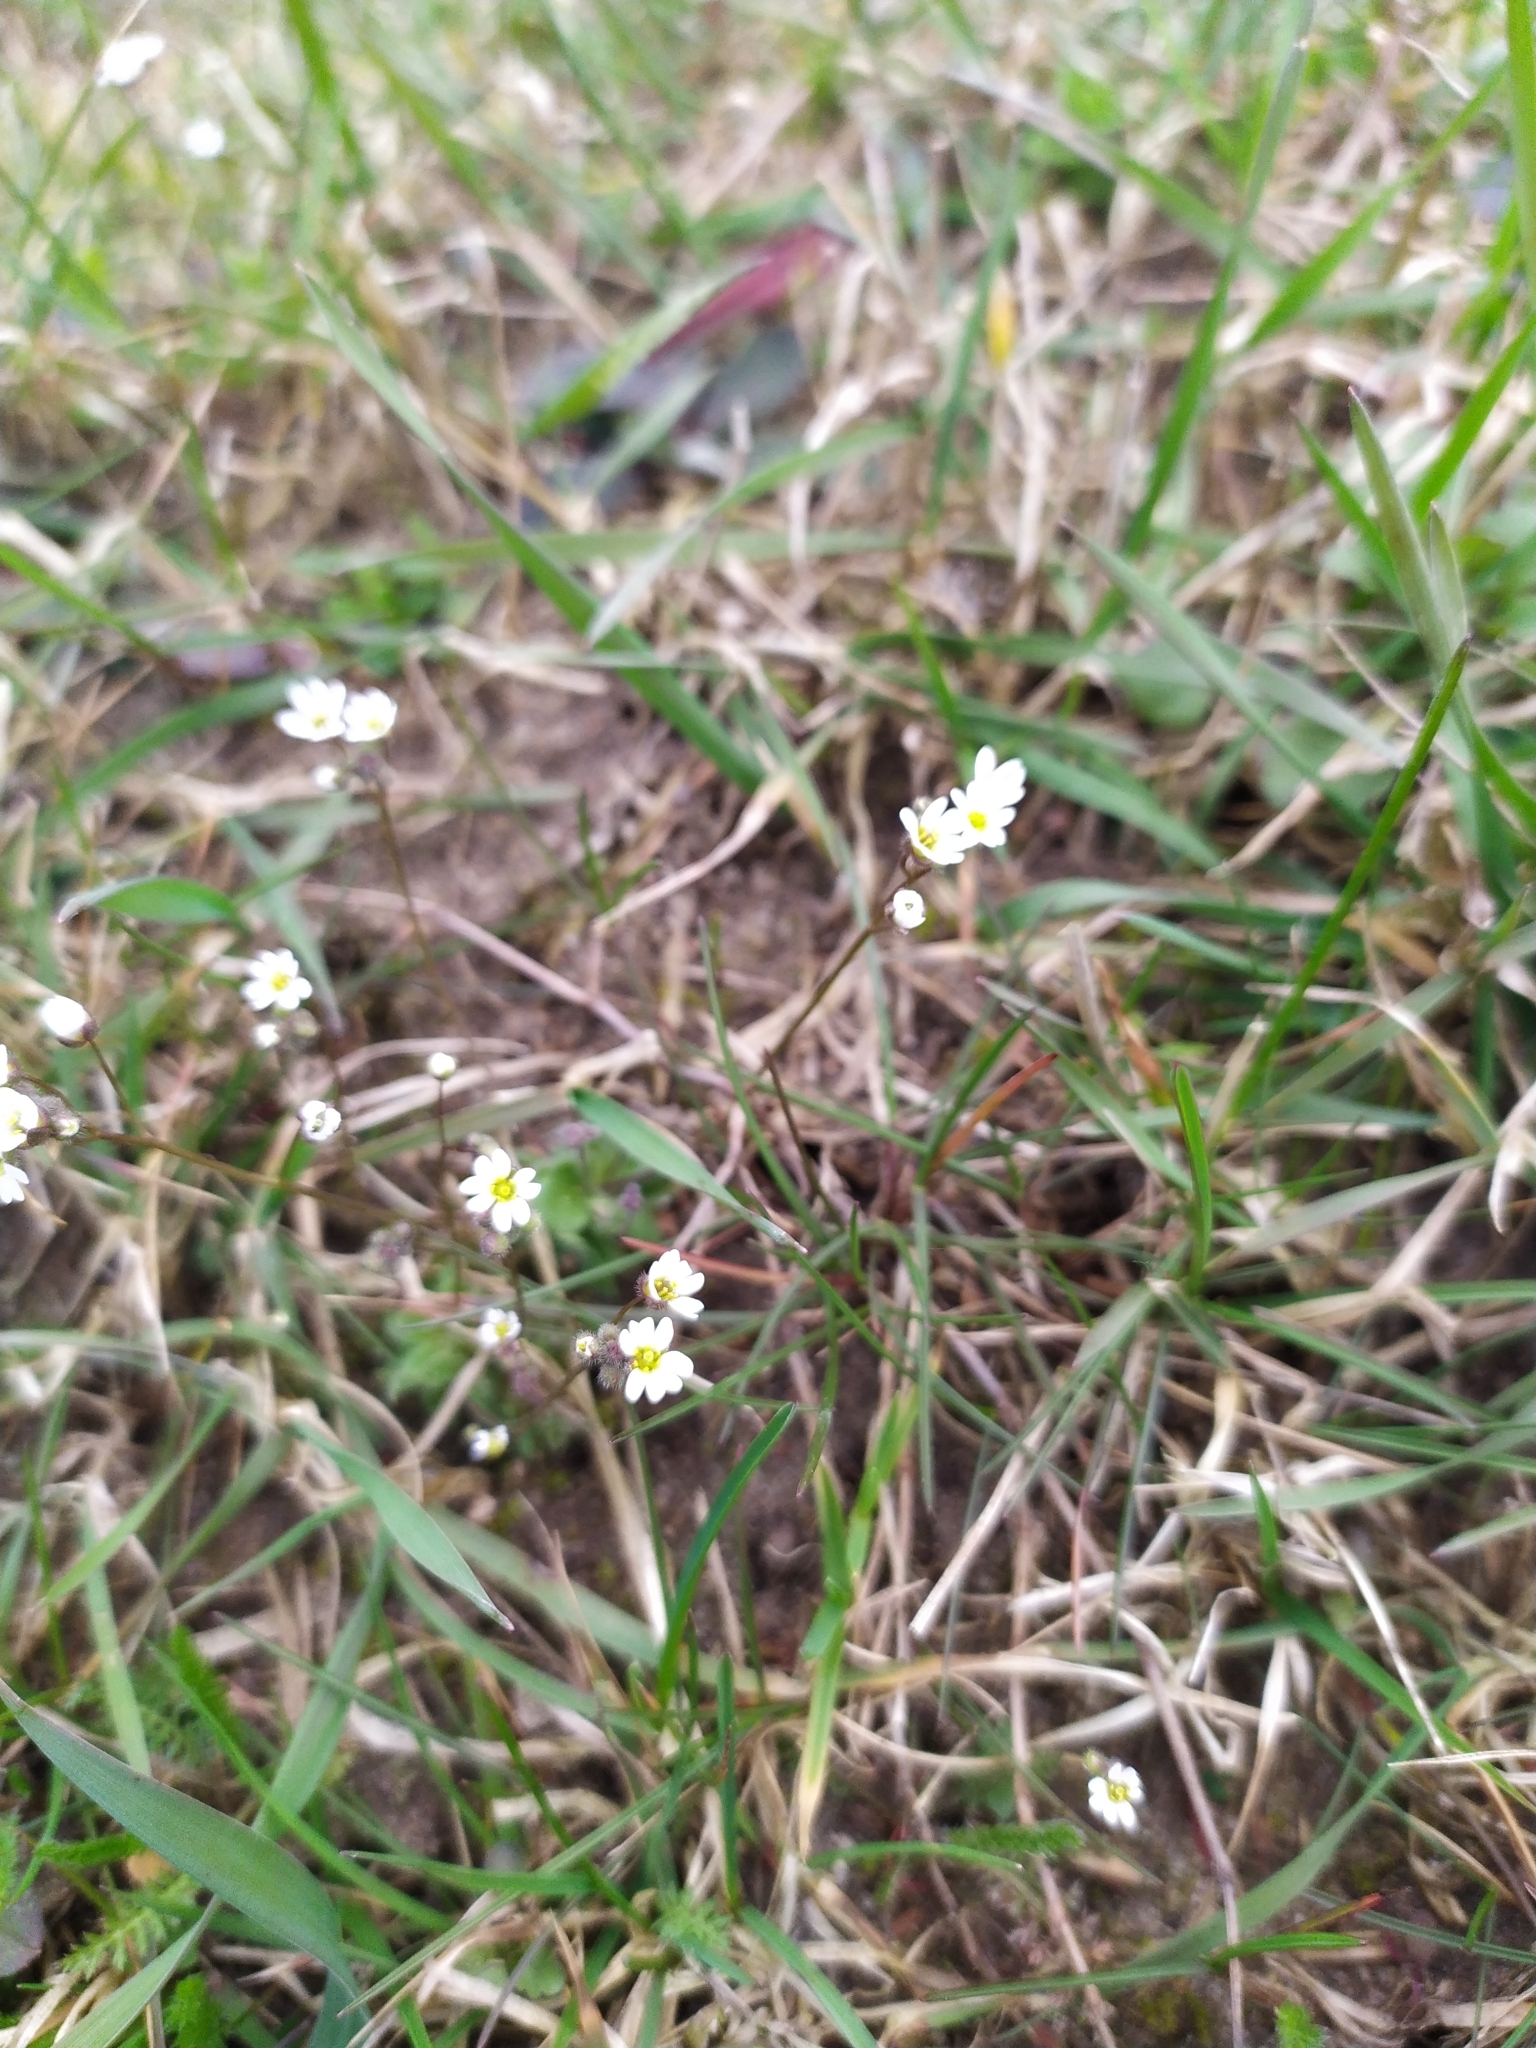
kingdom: Plantae
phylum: Tracheophyta
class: Magnoliopsida
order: Brassicales
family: Brassicaceae
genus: Draba
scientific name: Draba verna
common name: Spring draba
